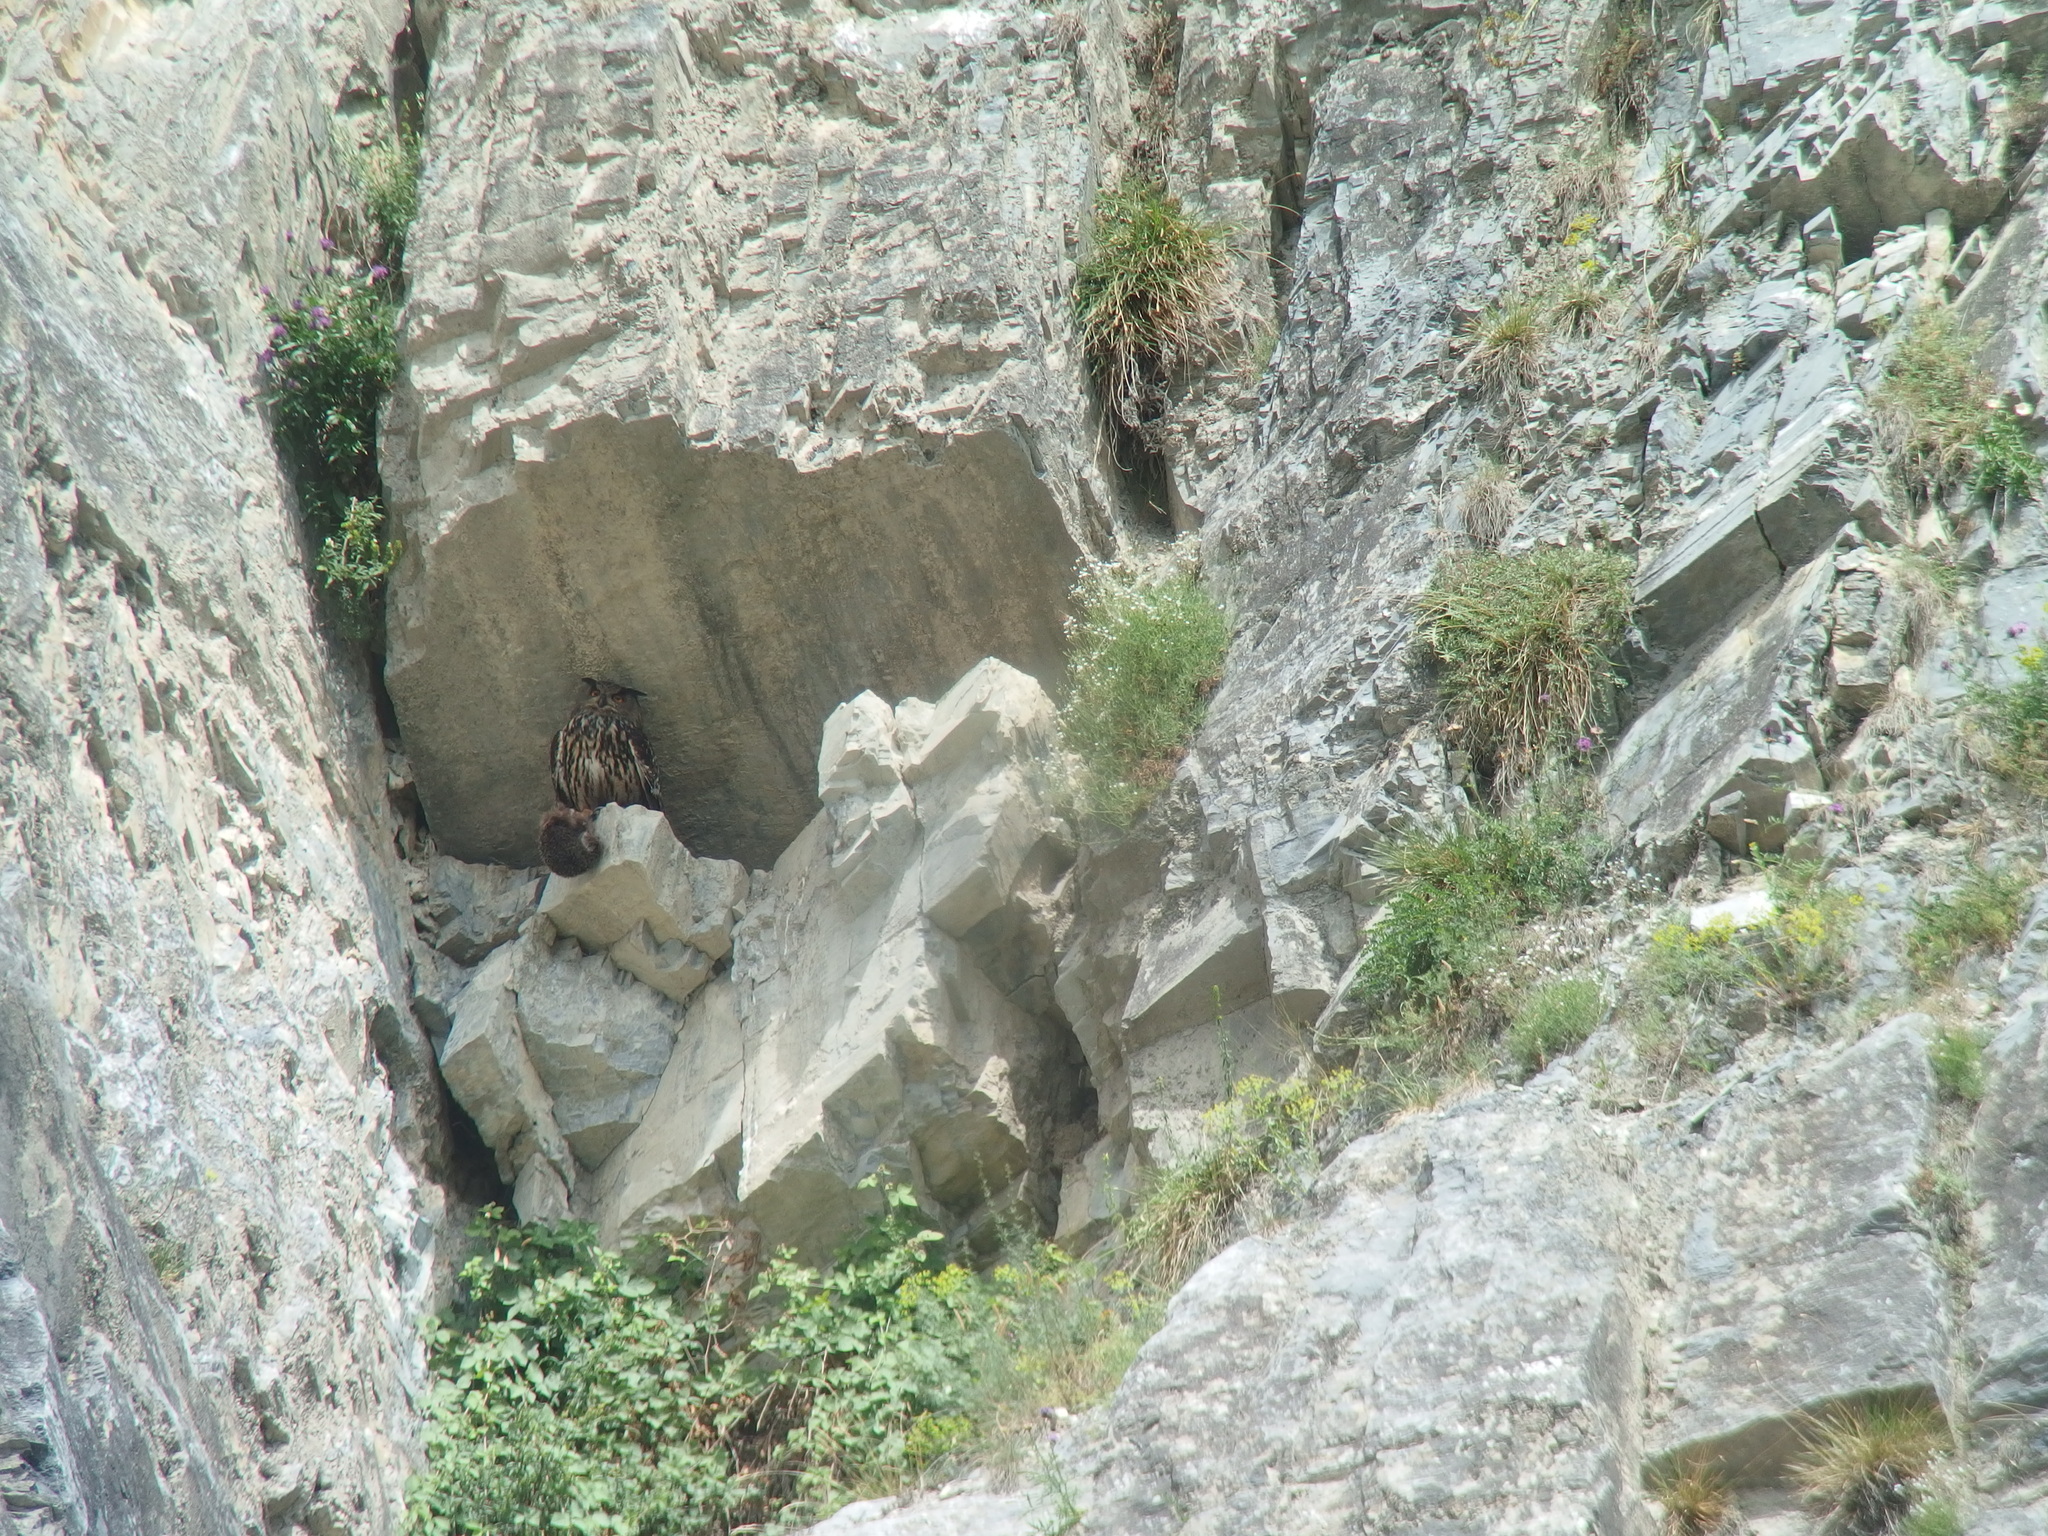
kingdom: Animalia
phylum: Chordata
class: Aves
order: Strigiformes
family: Strigidae
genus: Bubo
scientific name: Bubo bubo
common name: Eurasian eagle-owl
